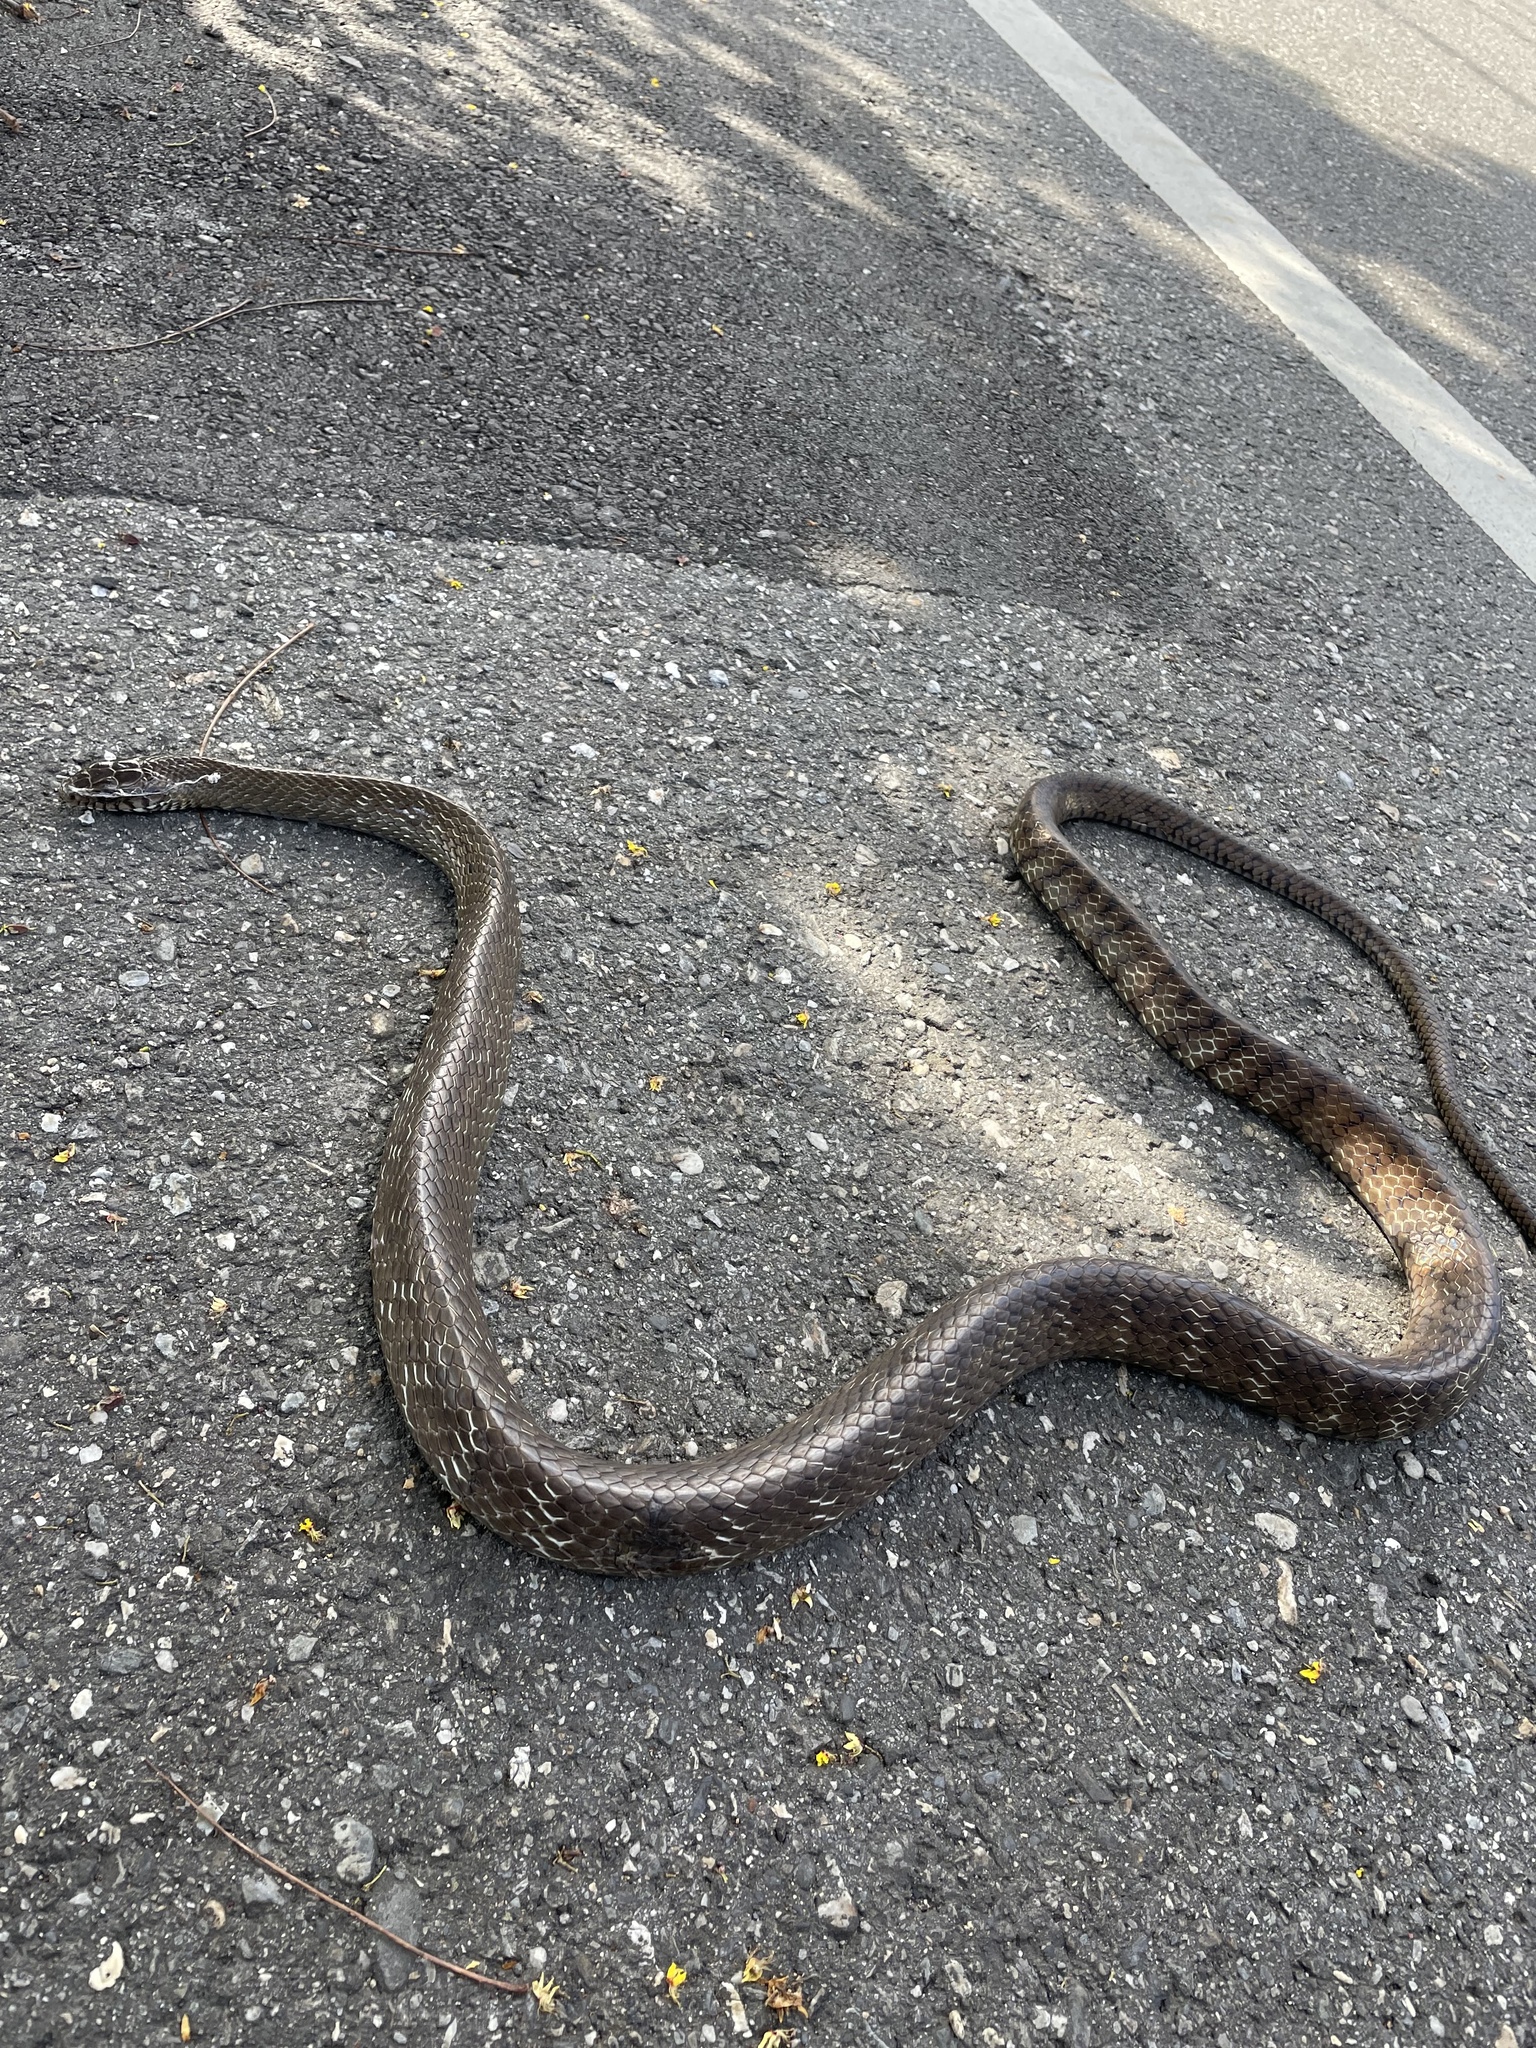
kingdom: Animalia
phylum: Chordata
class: Squamata
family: Colubridae
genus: Ptyas
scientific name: Ptyas mucosa
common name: Oriental ratsnake
